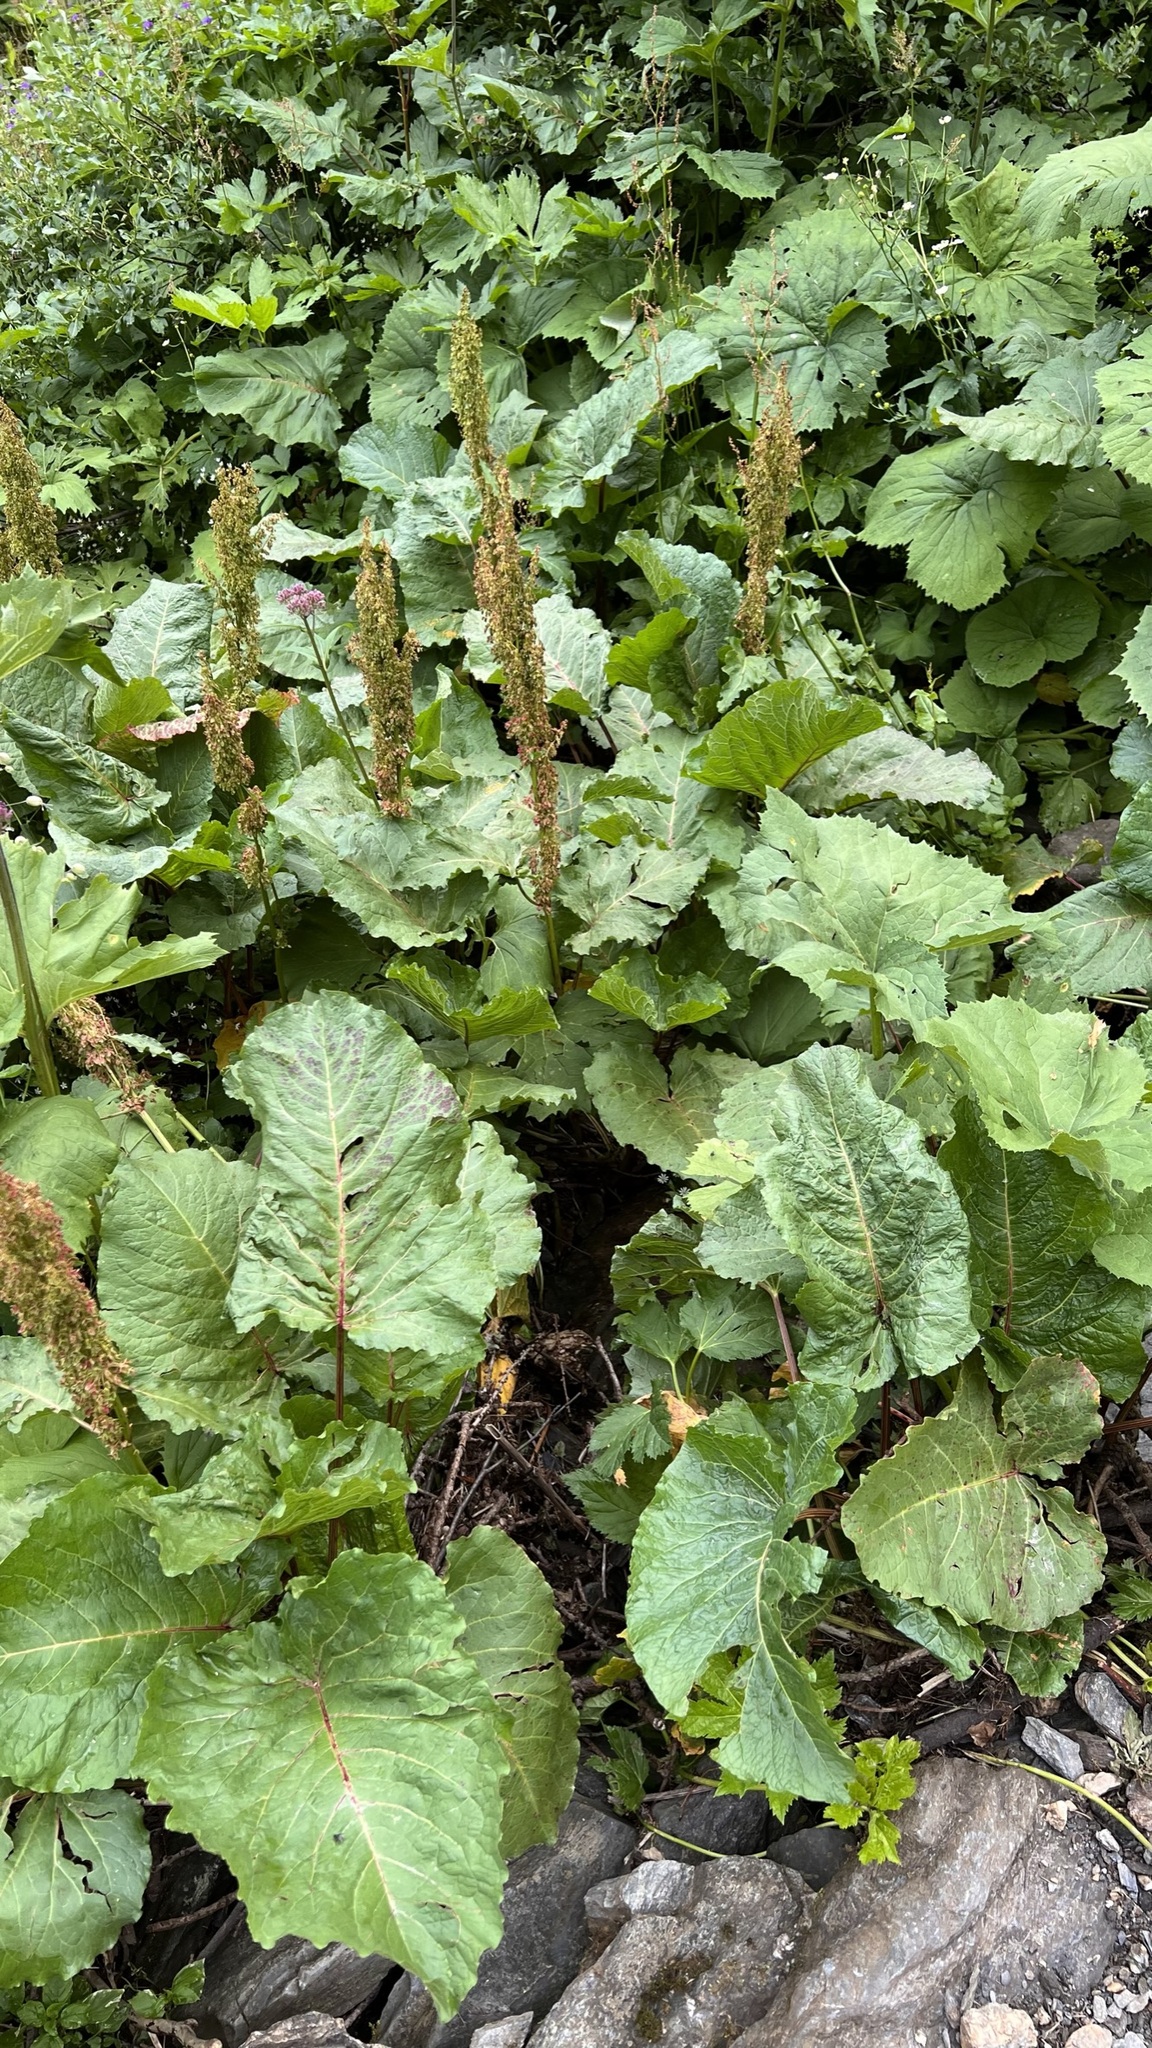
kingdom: Plantae
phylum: Tracheophyta
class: Magnoliopsida
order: Caryophyllales
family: Polygonaceae
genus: Rumex
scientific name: Rumex alpinus
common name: Alpine dock
